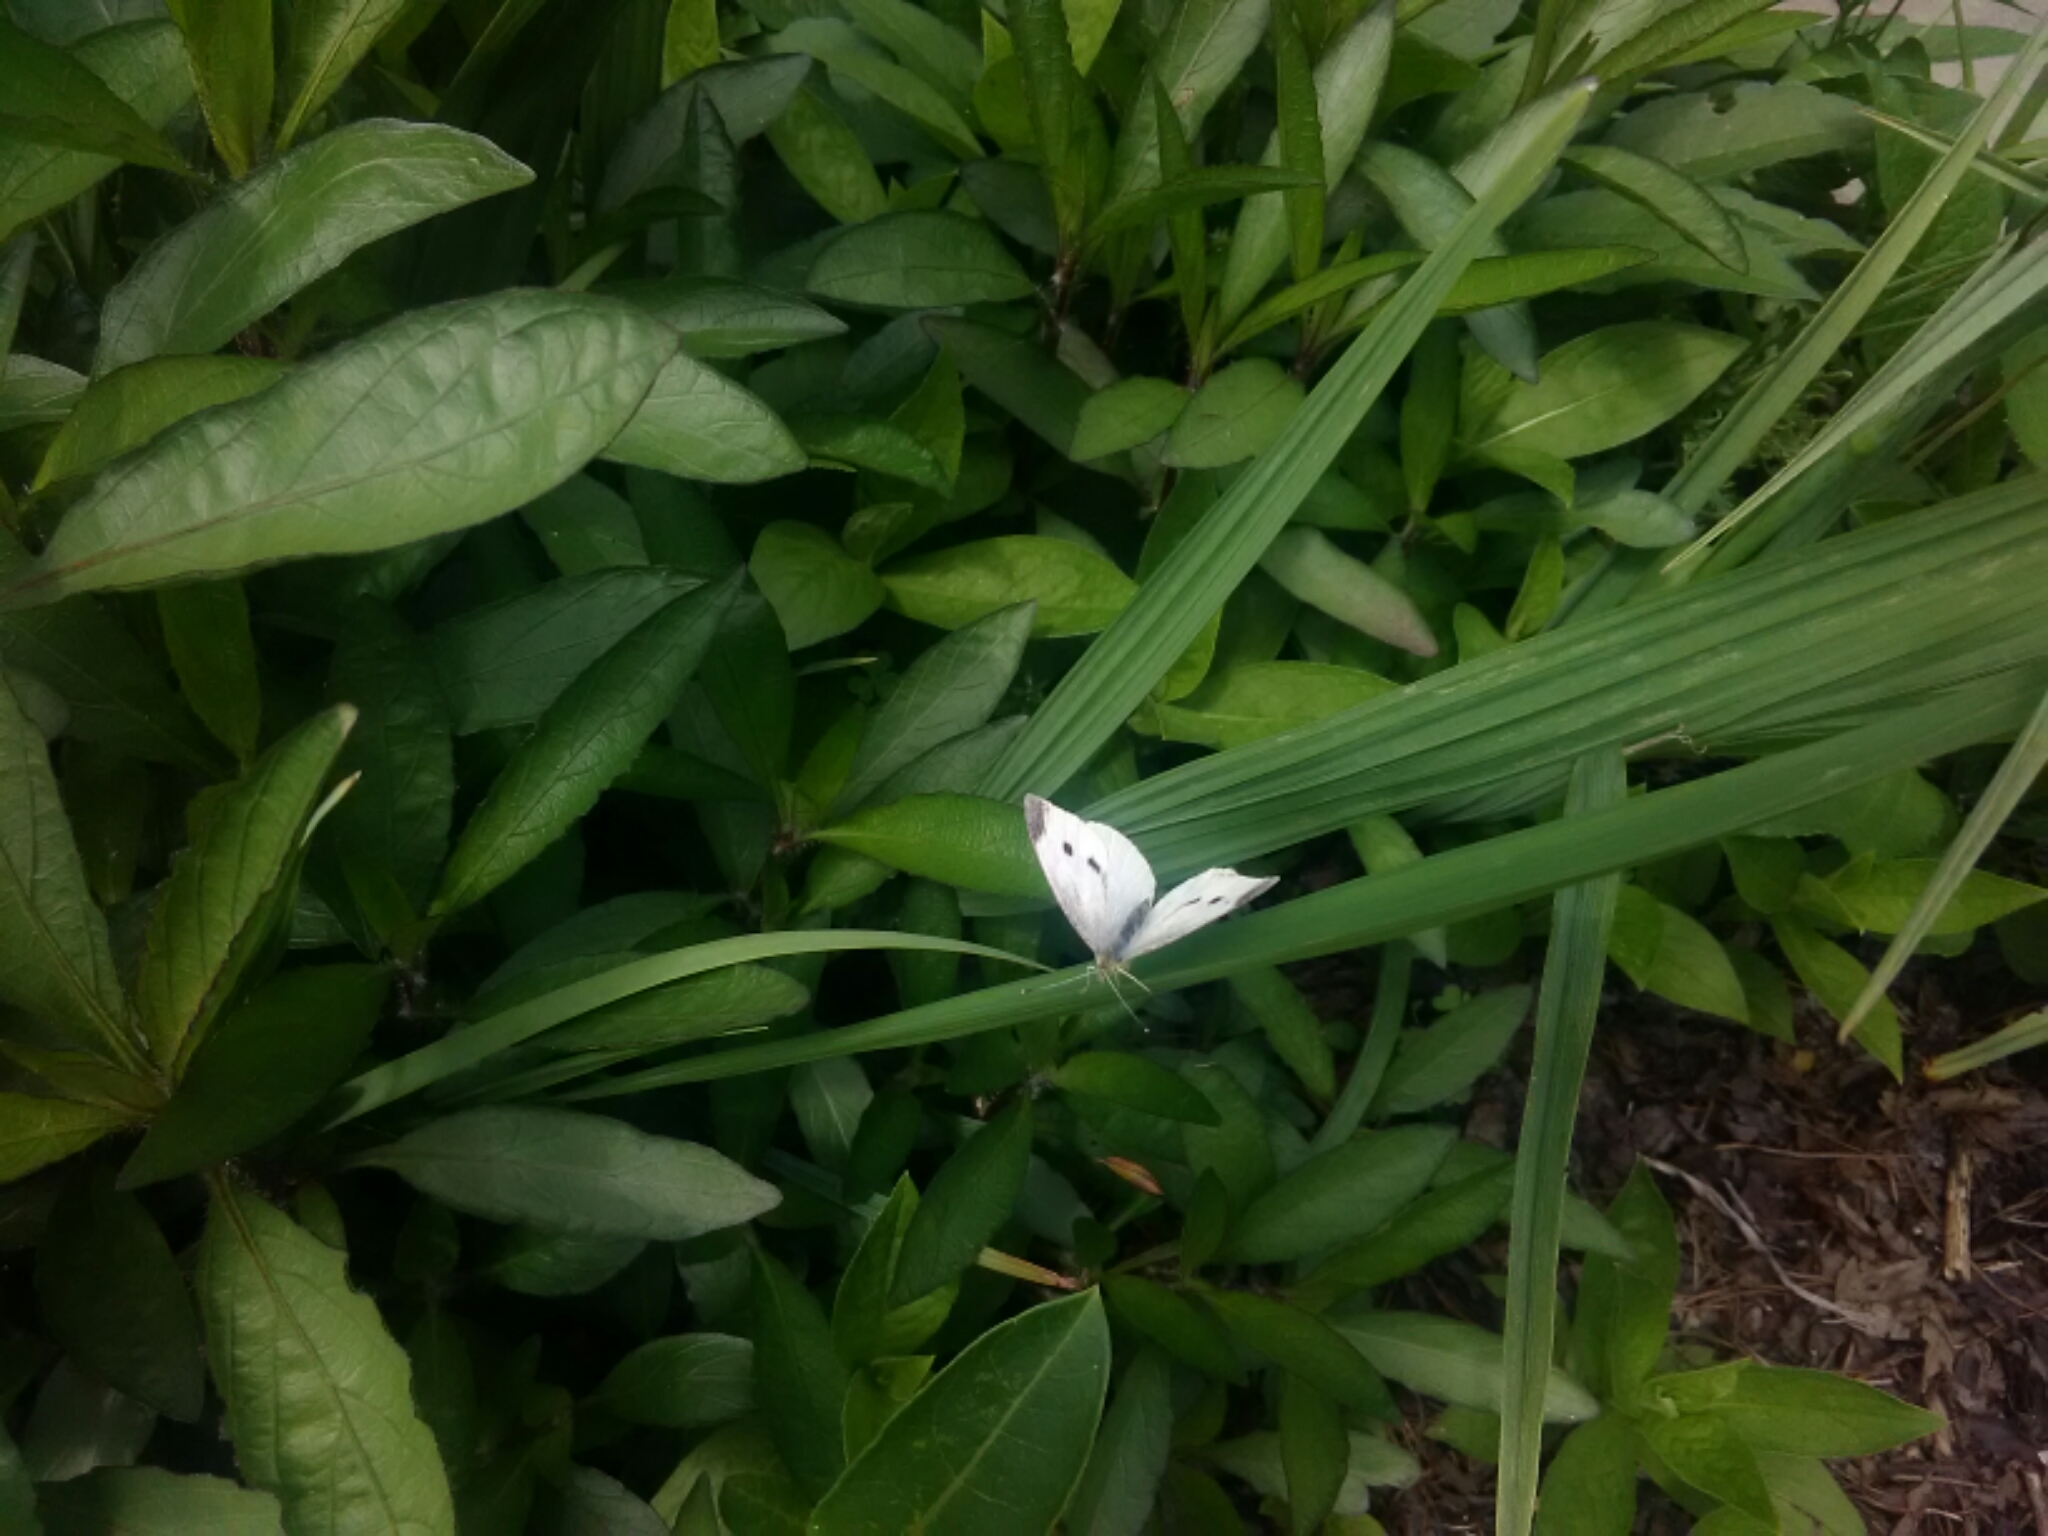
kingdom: Animalia
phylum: Arthropoda
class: Insecta
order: Lepidoptera
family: Pieridae
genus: Pieris
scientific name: Pieris rapae
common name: Small white
